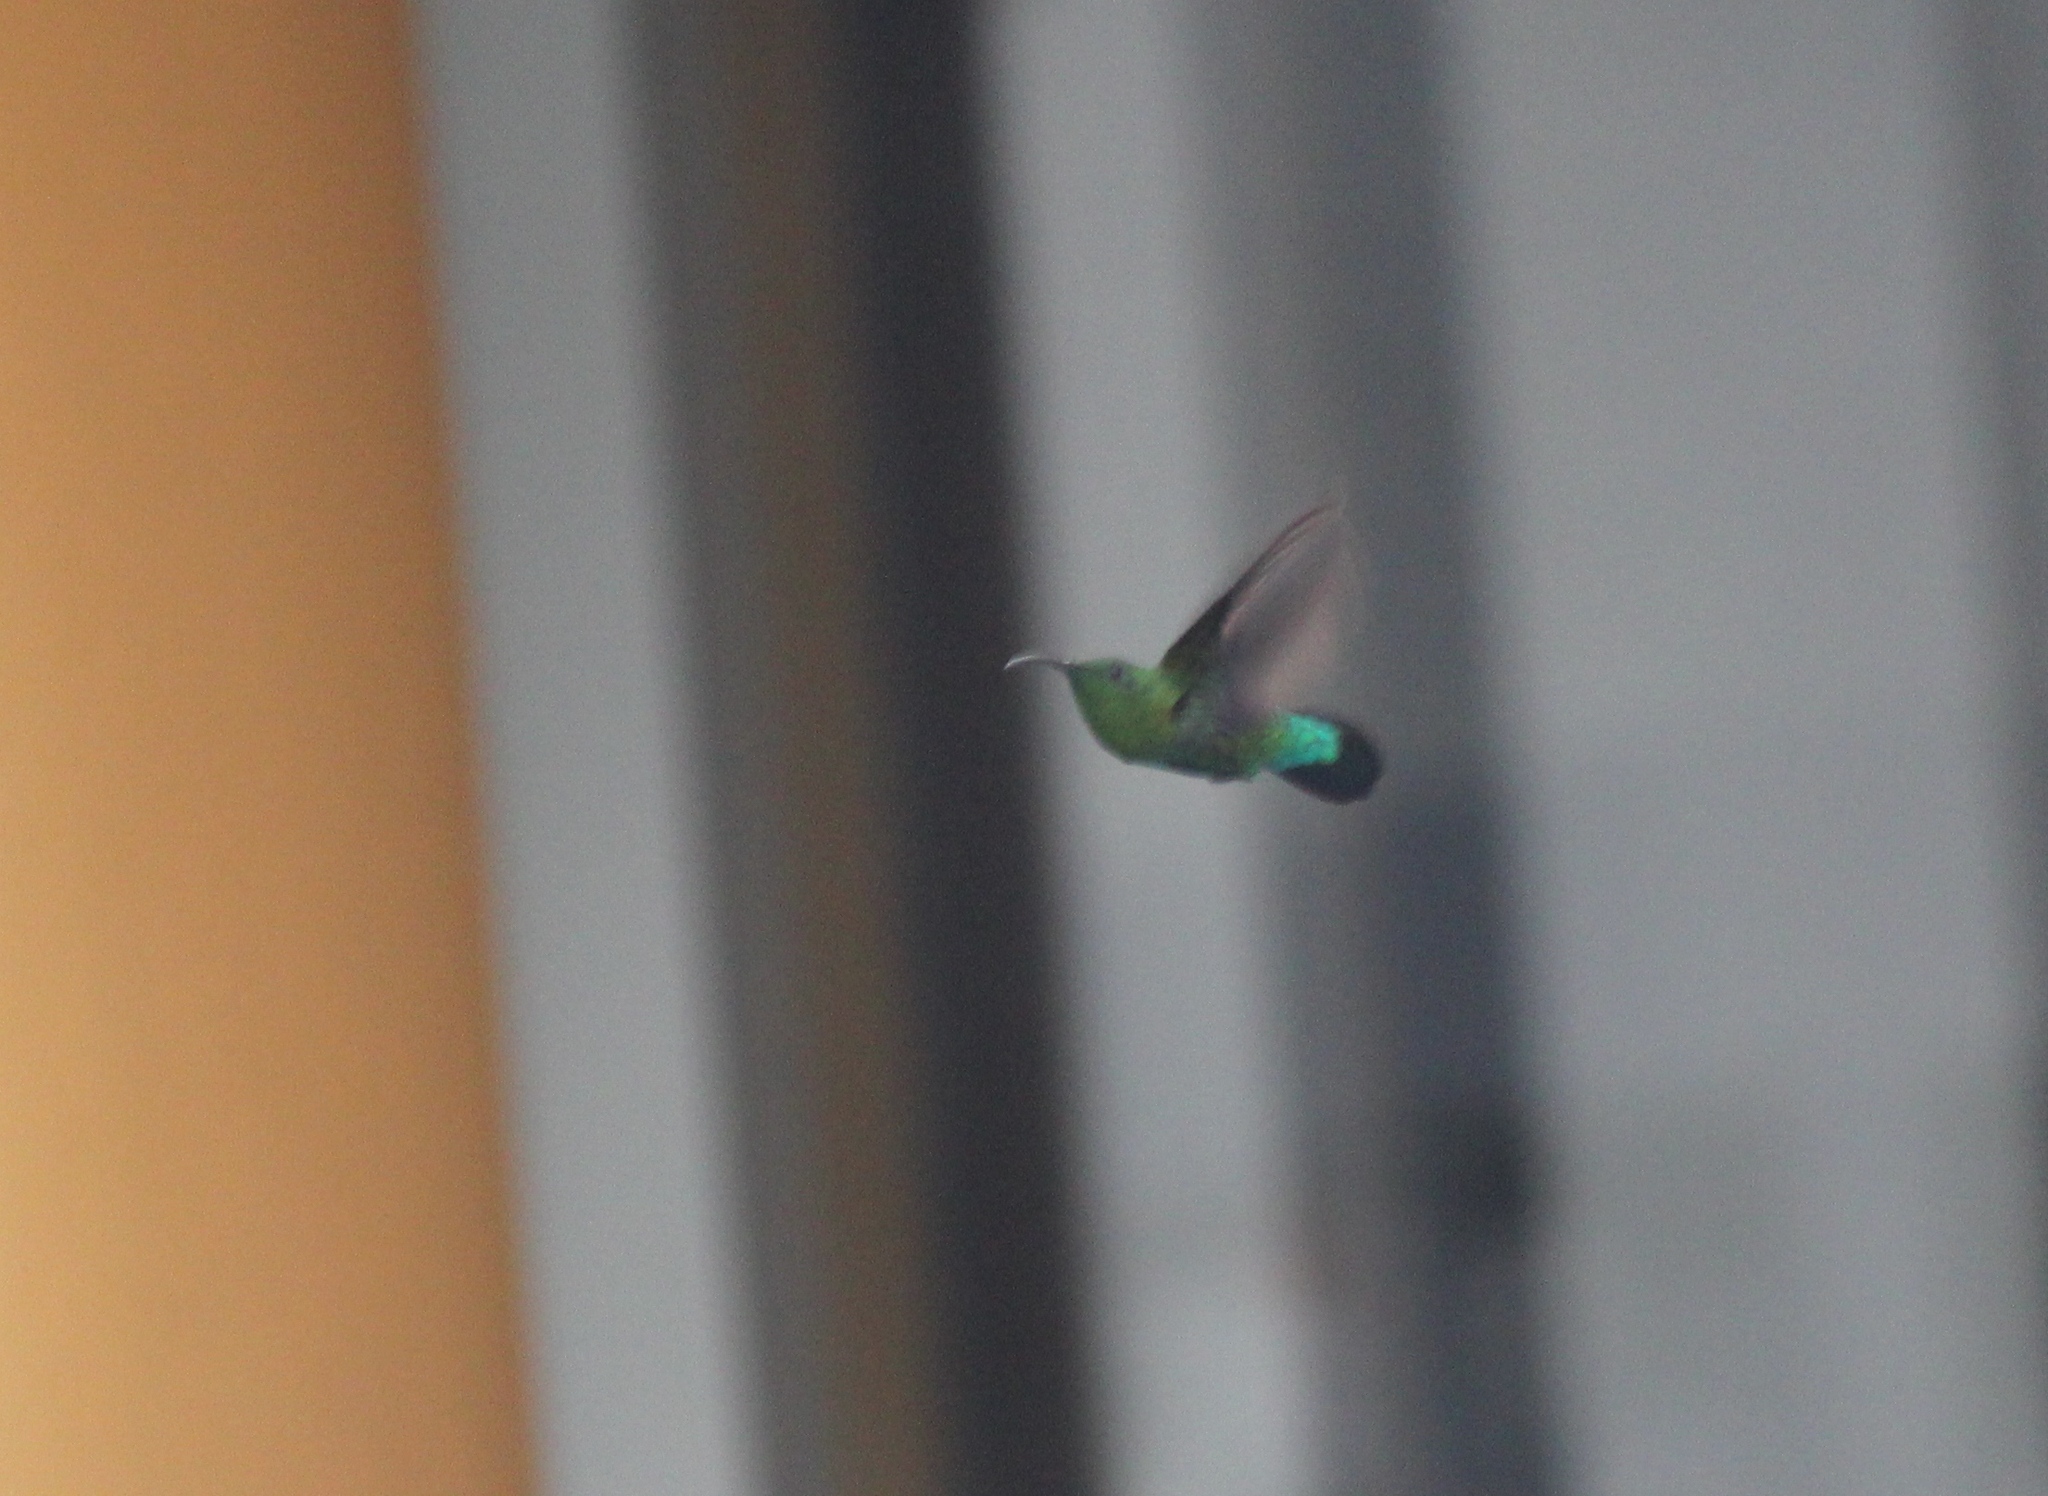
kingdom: Animalia
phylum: Chordata
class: Aves
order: Apodiformes
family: Trochilidae
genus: Eulampis
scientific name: Eulampis holosericeus
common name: Green-throated carib
